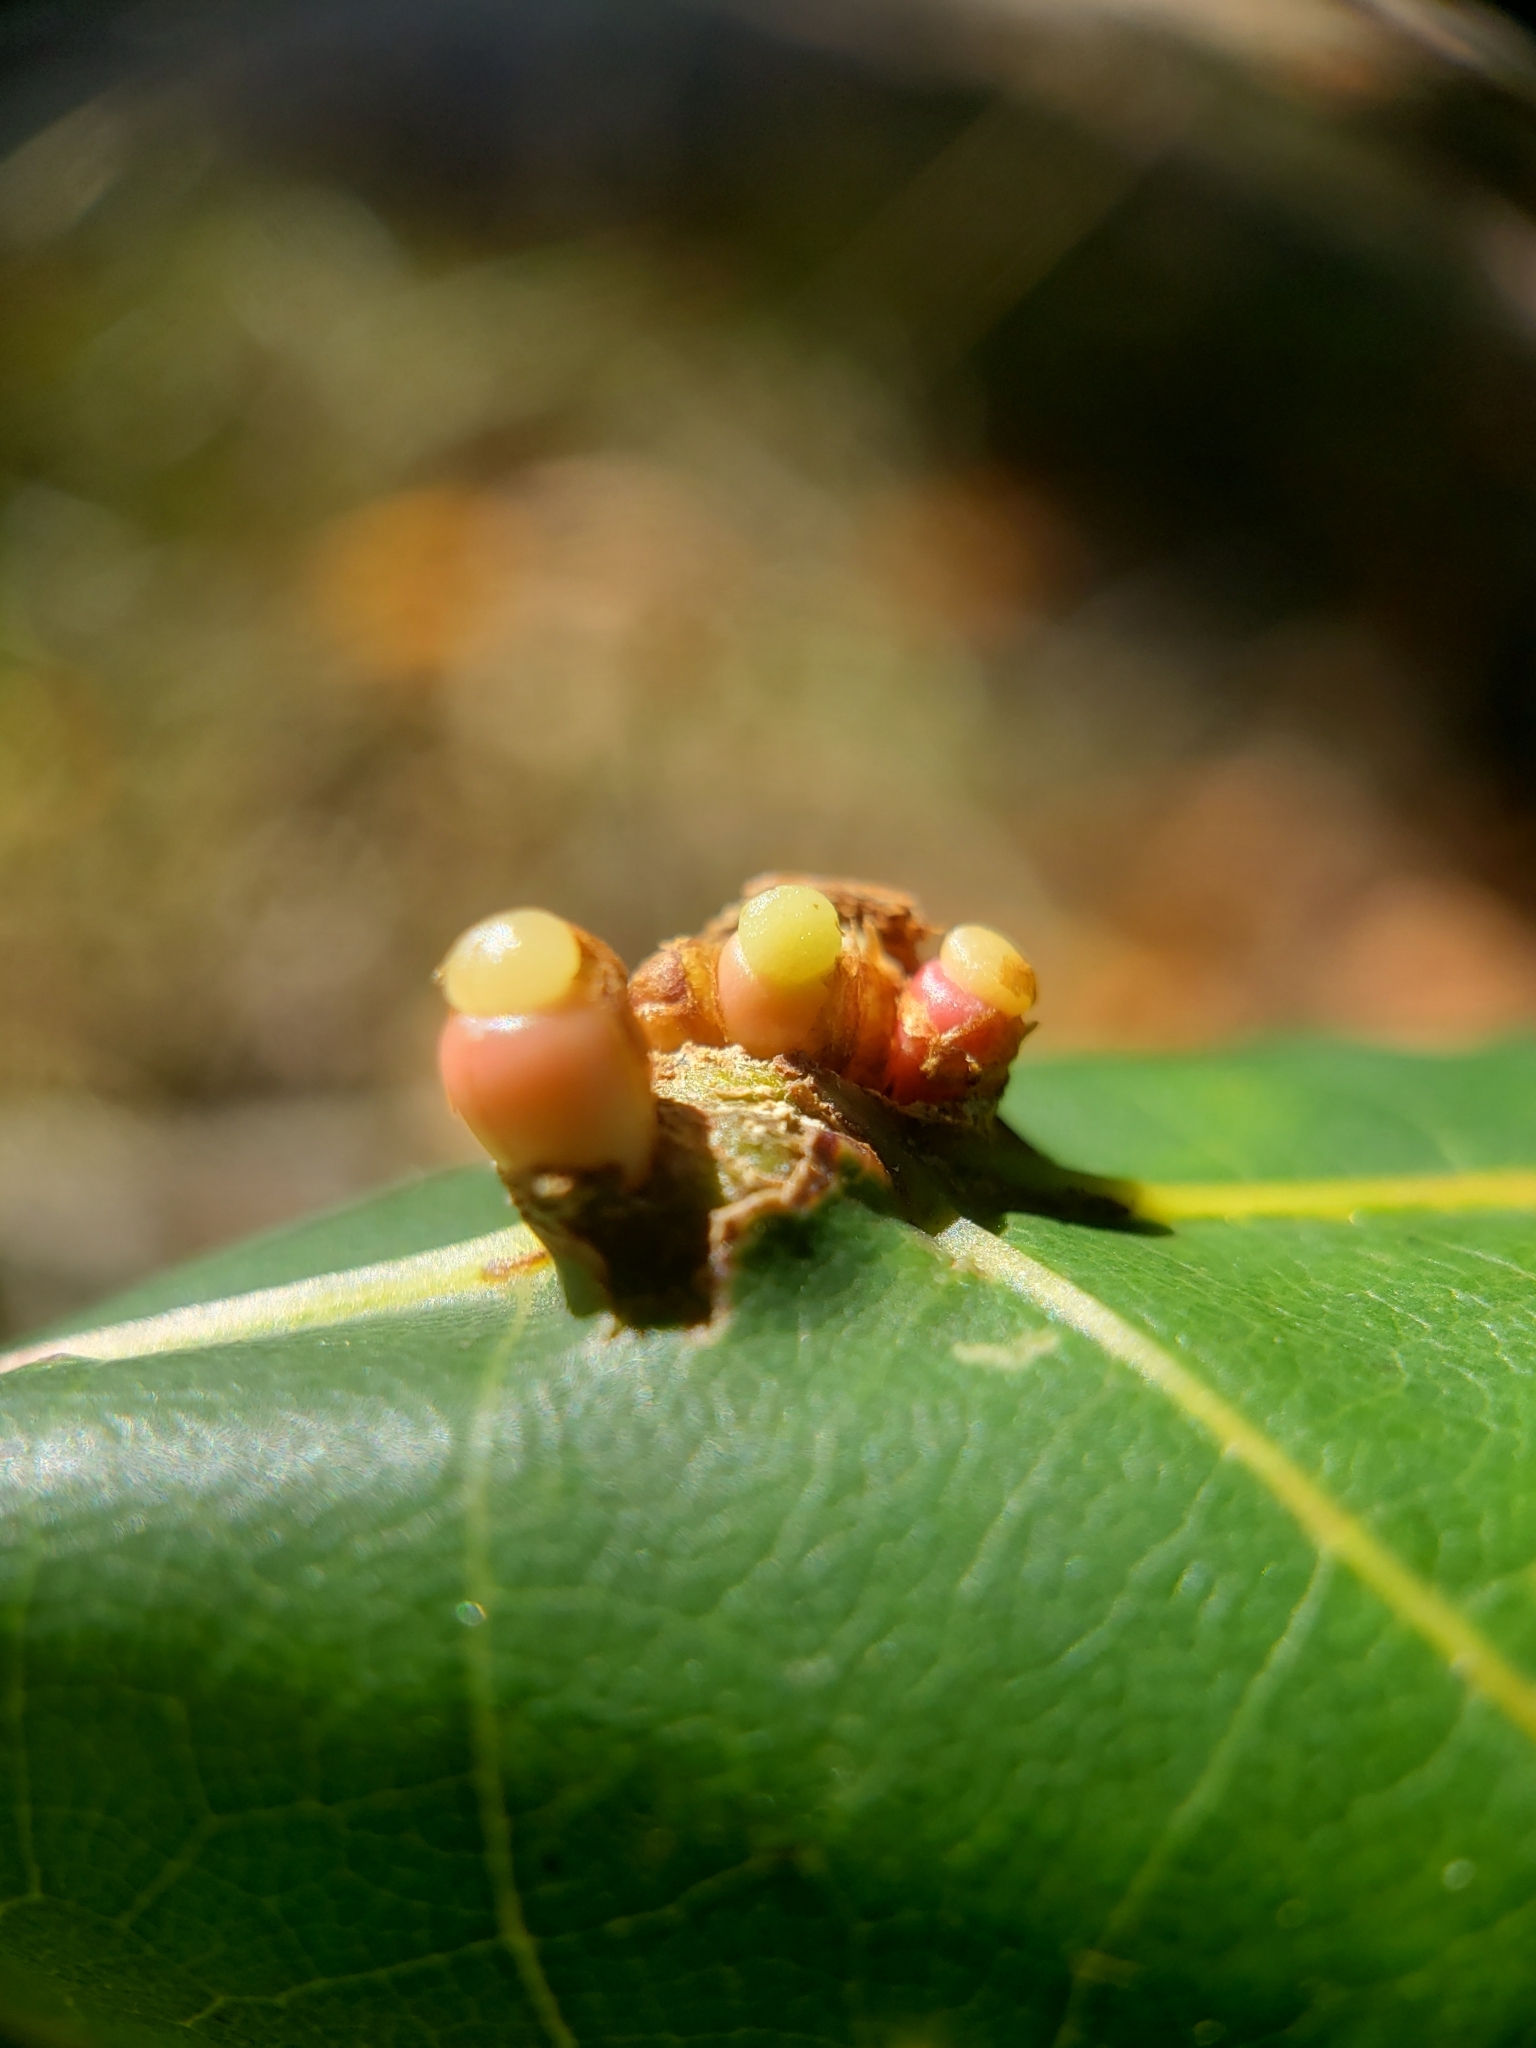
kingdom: Animalia
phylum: Arthropoda
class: Insecta
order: Hymenoptera
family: Cynipidae
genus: Kokkocynips
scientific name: Kokkocynips decidua
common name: Oak wheat gall
